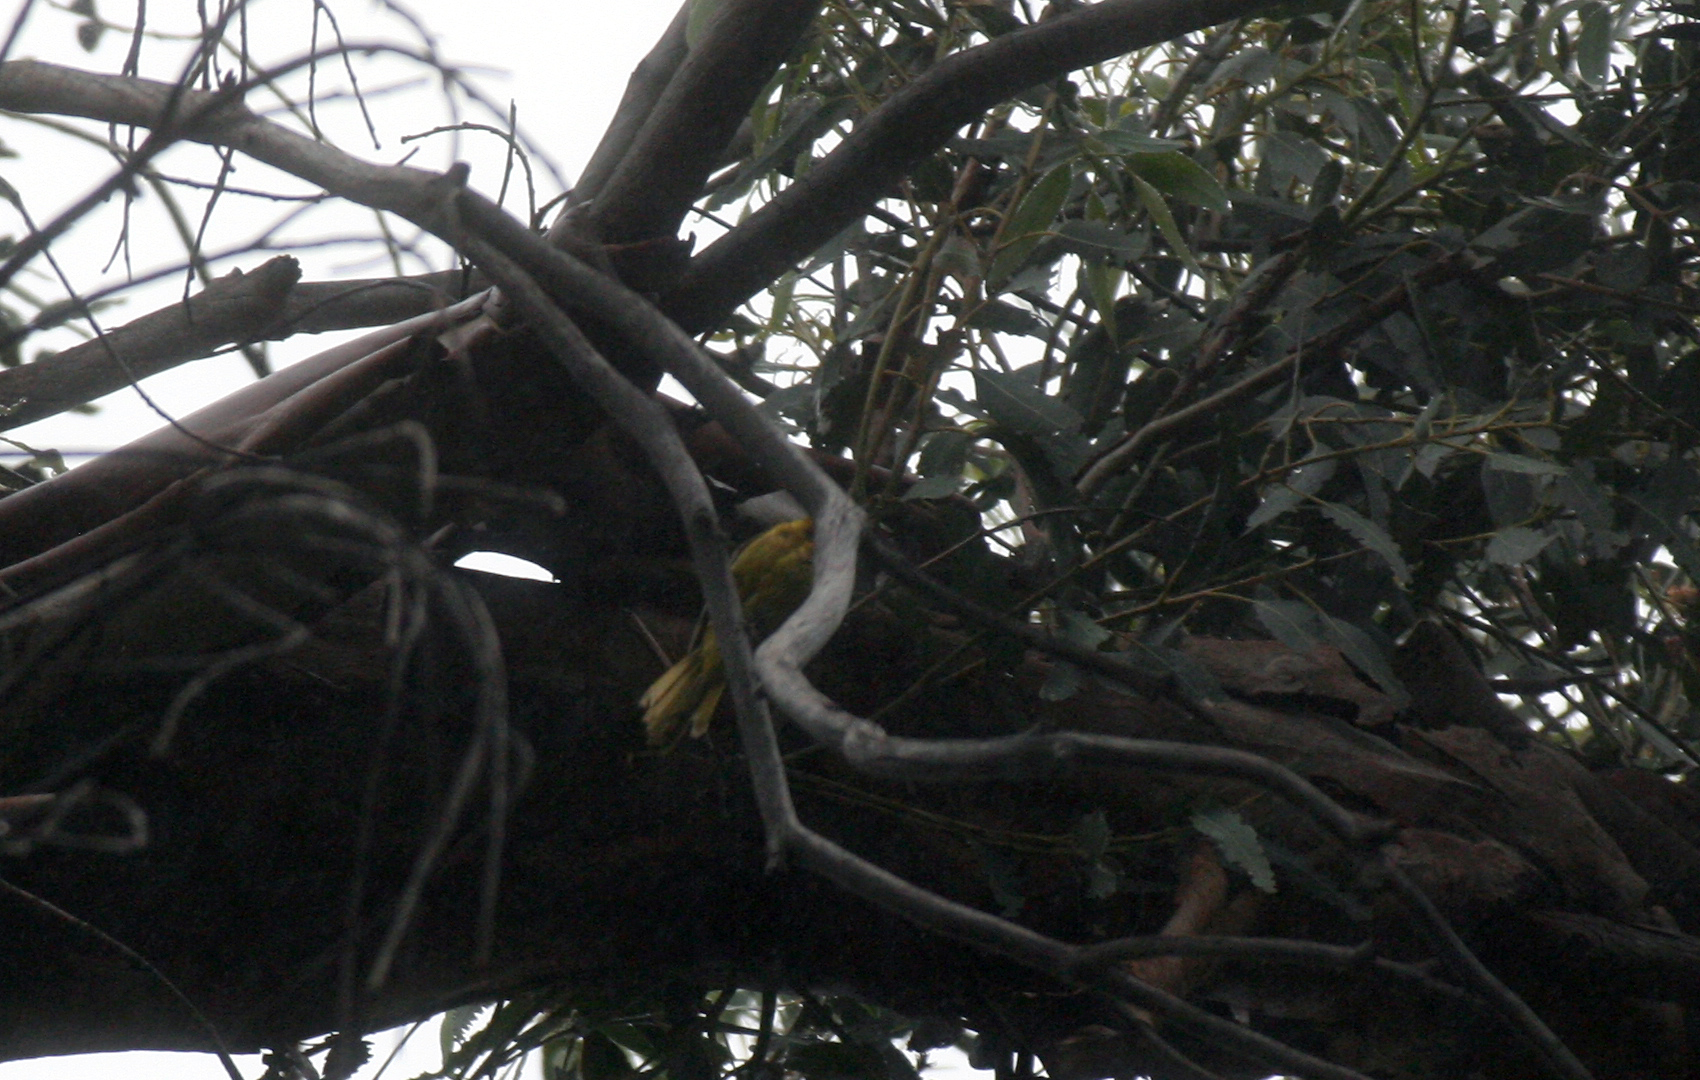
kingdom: Animalia
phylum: Chordata
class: Aves
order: Passeriformes
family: Parulidae
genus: Setophaga
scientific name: Setophaga petechia
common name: Yellow warbler
